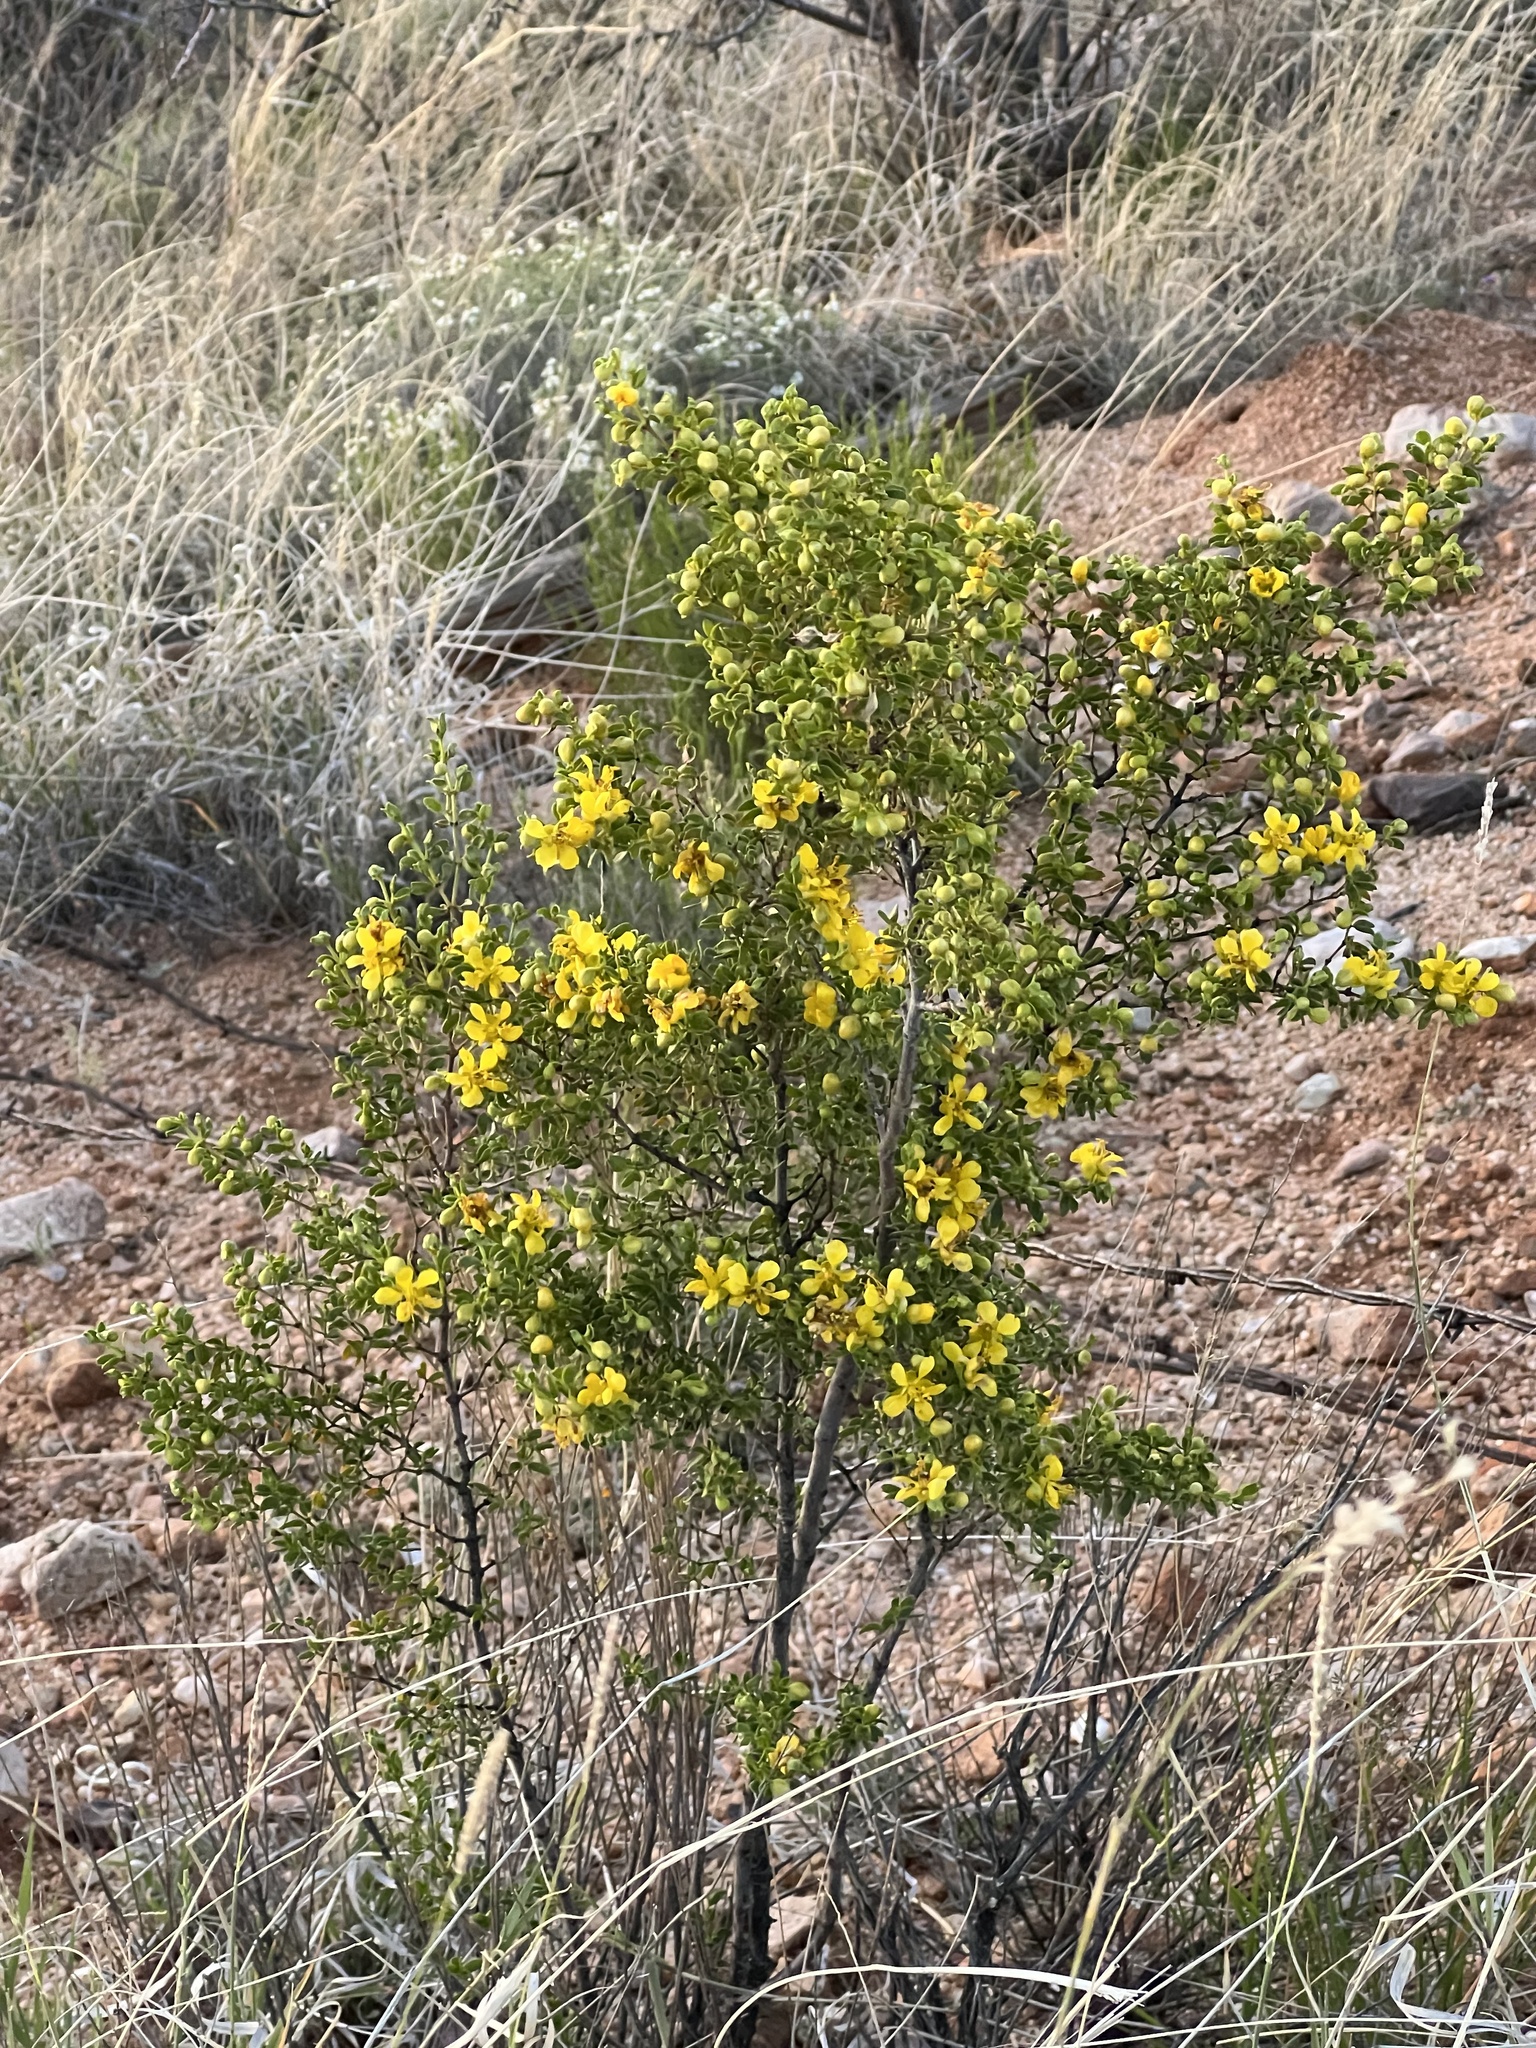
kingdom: Plantae
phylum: Tracheophyta
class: Magnoliopsida
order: Zygophyllales
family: Zygophyllaceae
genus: Larrea
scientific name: Larrea tridentata
